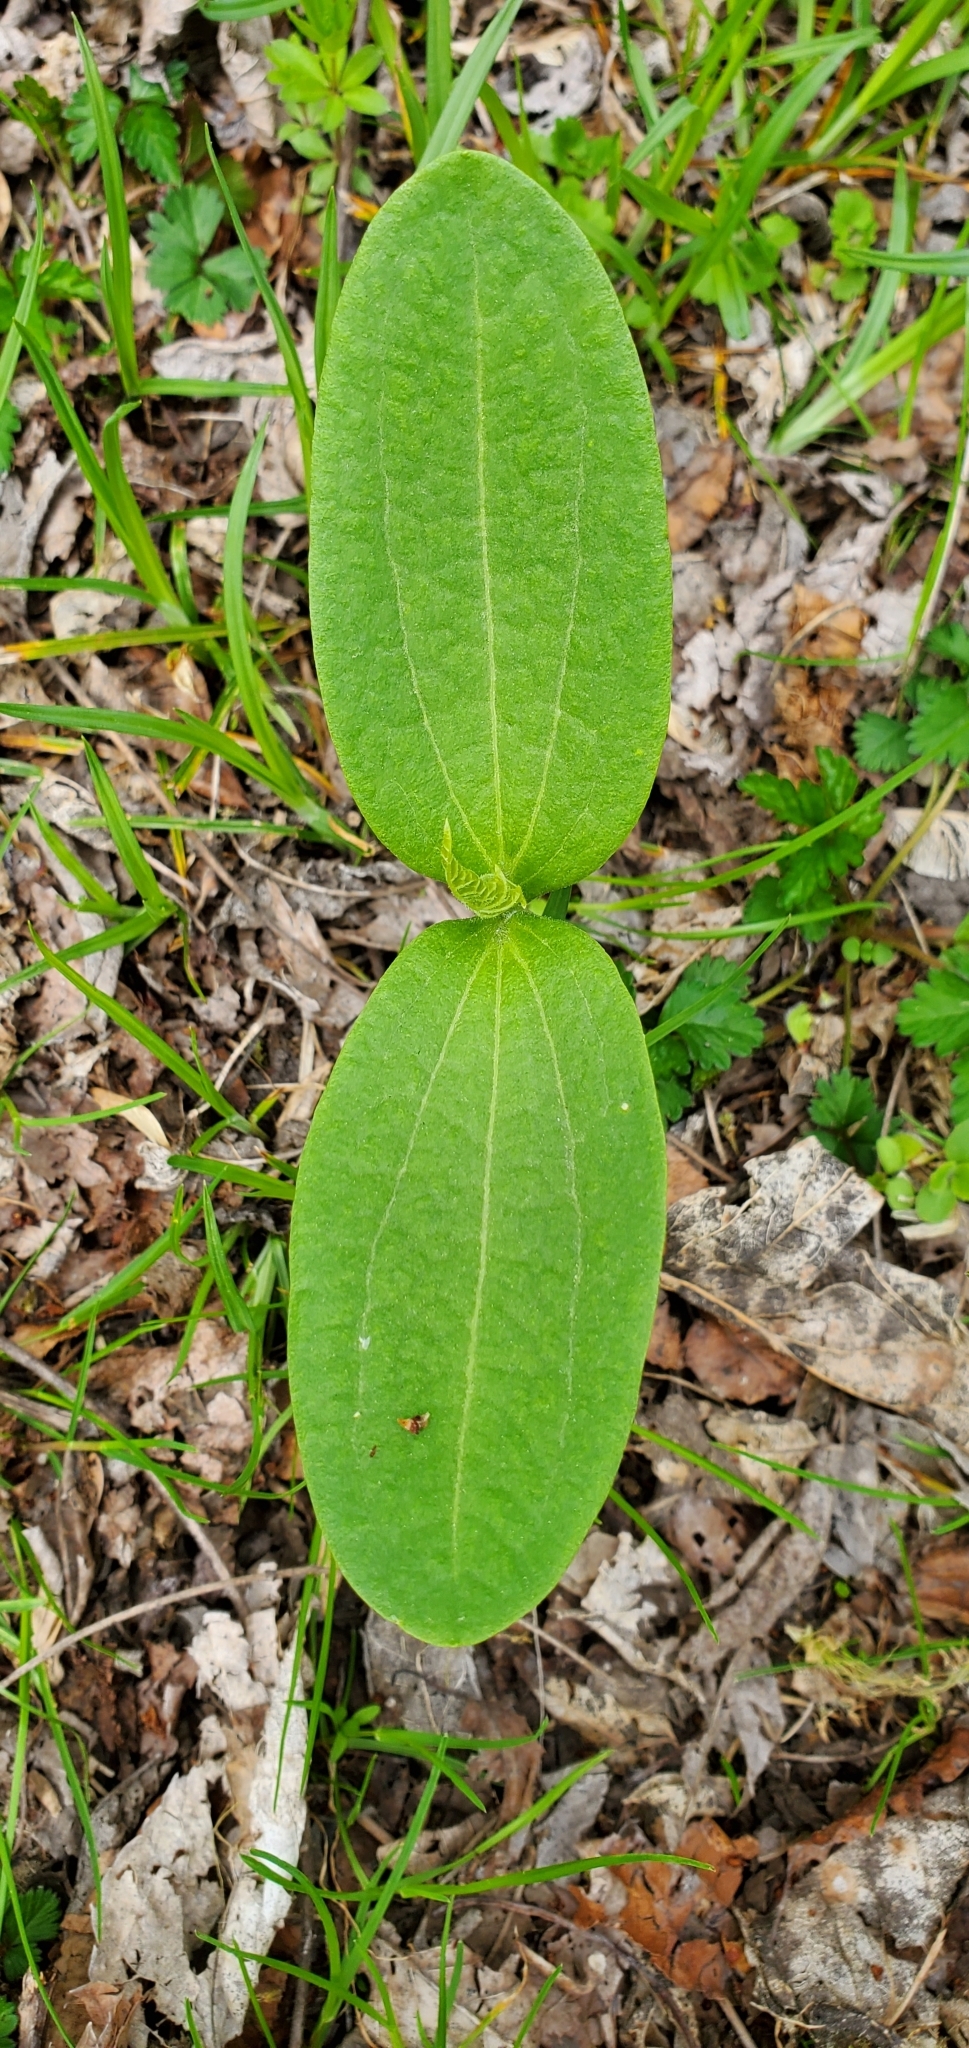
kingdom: Plantae
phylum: Tracheophyta
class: Magnoliopsida
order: Cucurbitales
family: Cucurbitaceae
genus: Echinocystis
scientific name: Echinocystis lobata
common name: Wild cucumber
